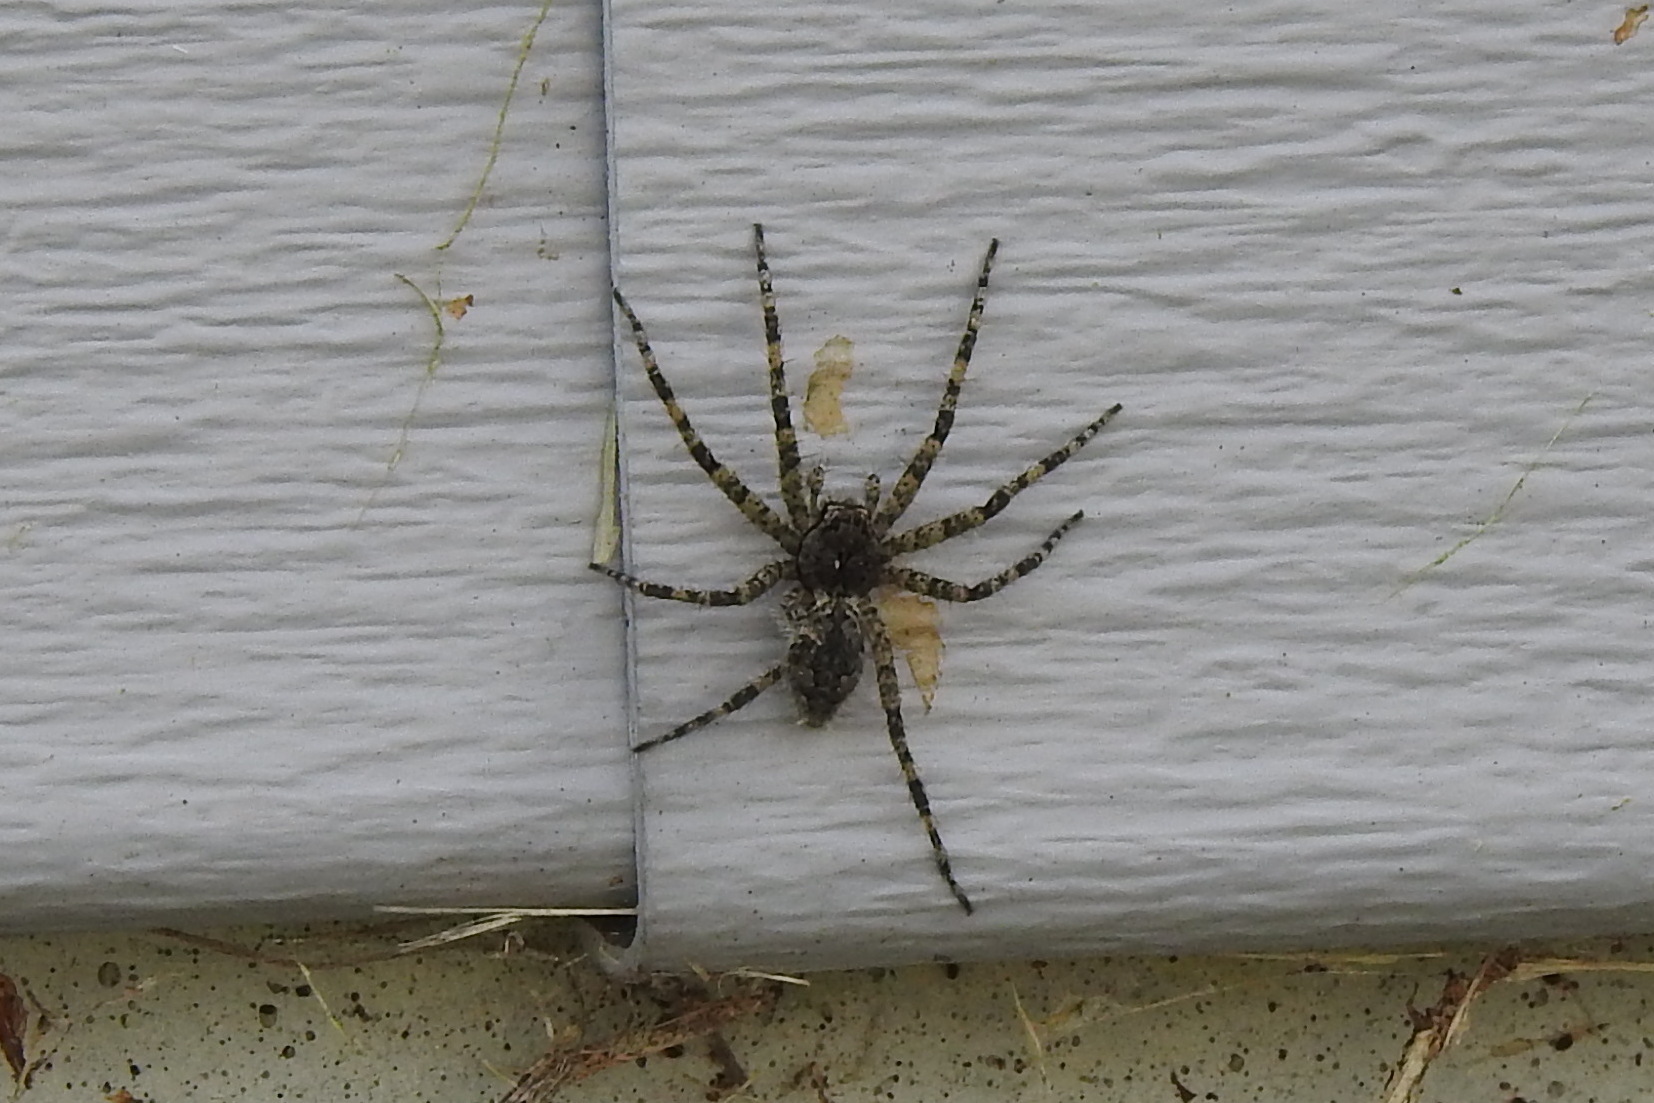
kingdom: Animalia
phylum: Arthropoda
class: Arachnida
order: Araneae
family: Pisauridae
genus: Dolomedes
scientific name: Dolomedes albineus
